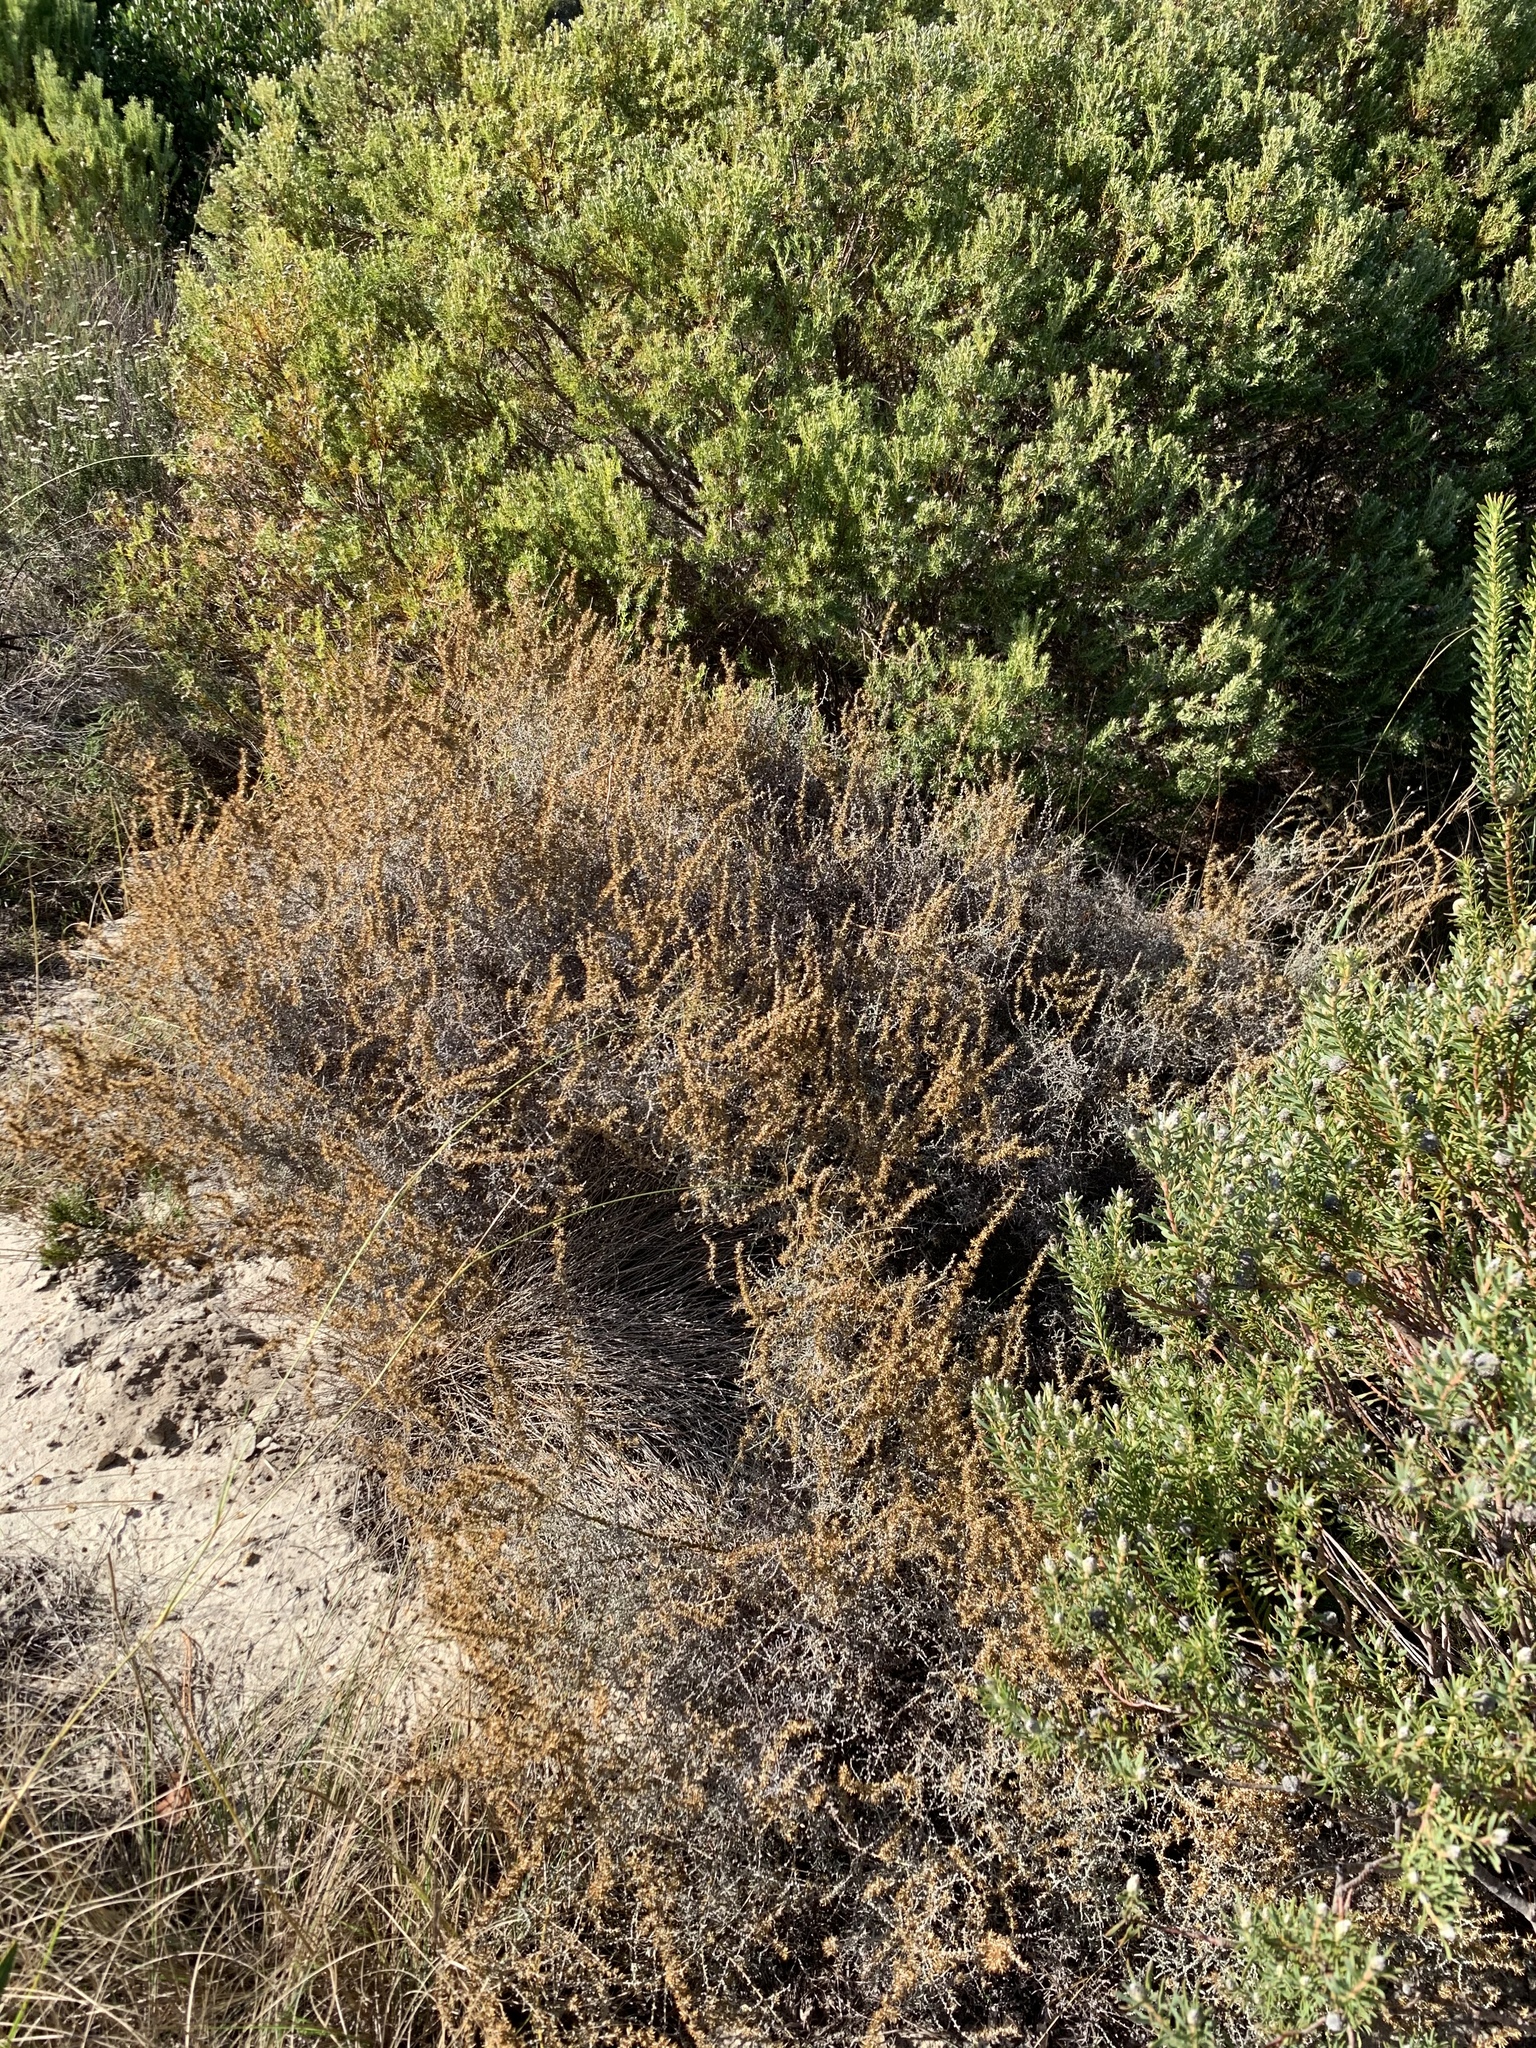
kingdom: Plantae
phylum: Tracheophyta
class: Magnoliopsida
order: Asterales
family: Asteraceae
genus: Seriphium
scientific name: Seriphium plumosum
